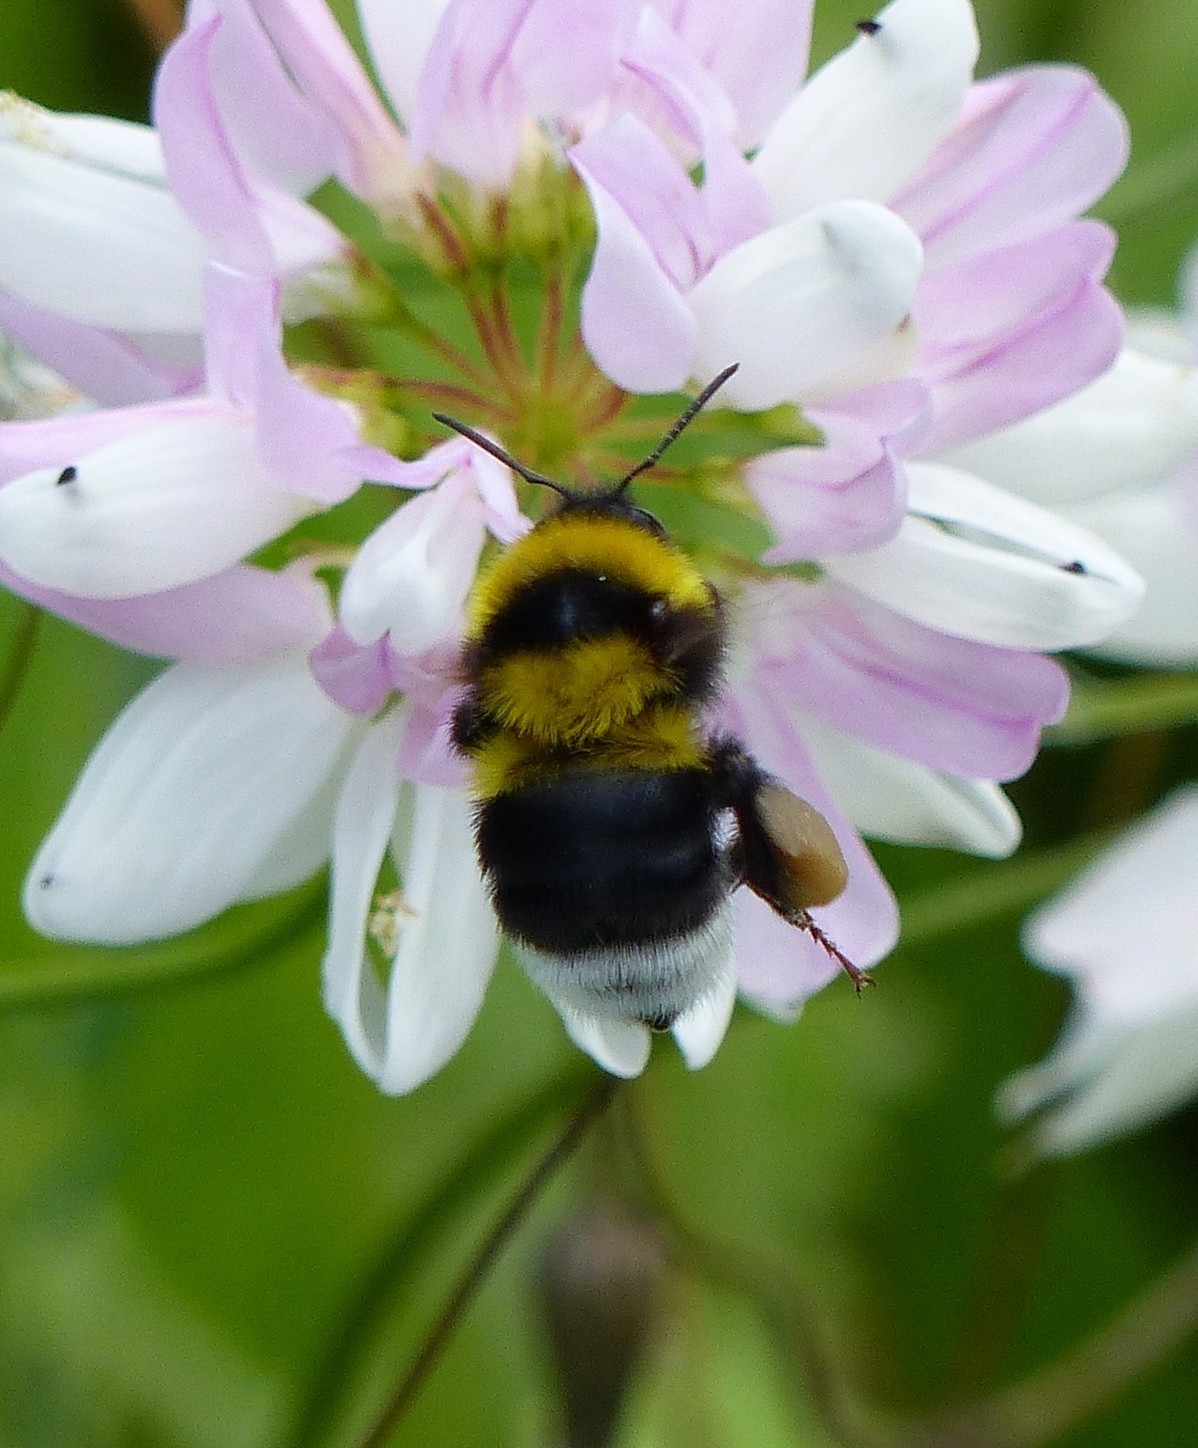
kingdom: Animalia
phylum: Arthropoda
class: Insecta
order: Hymenoptera
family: Apidae
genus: Bombus
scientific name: Bombus argillaceus
